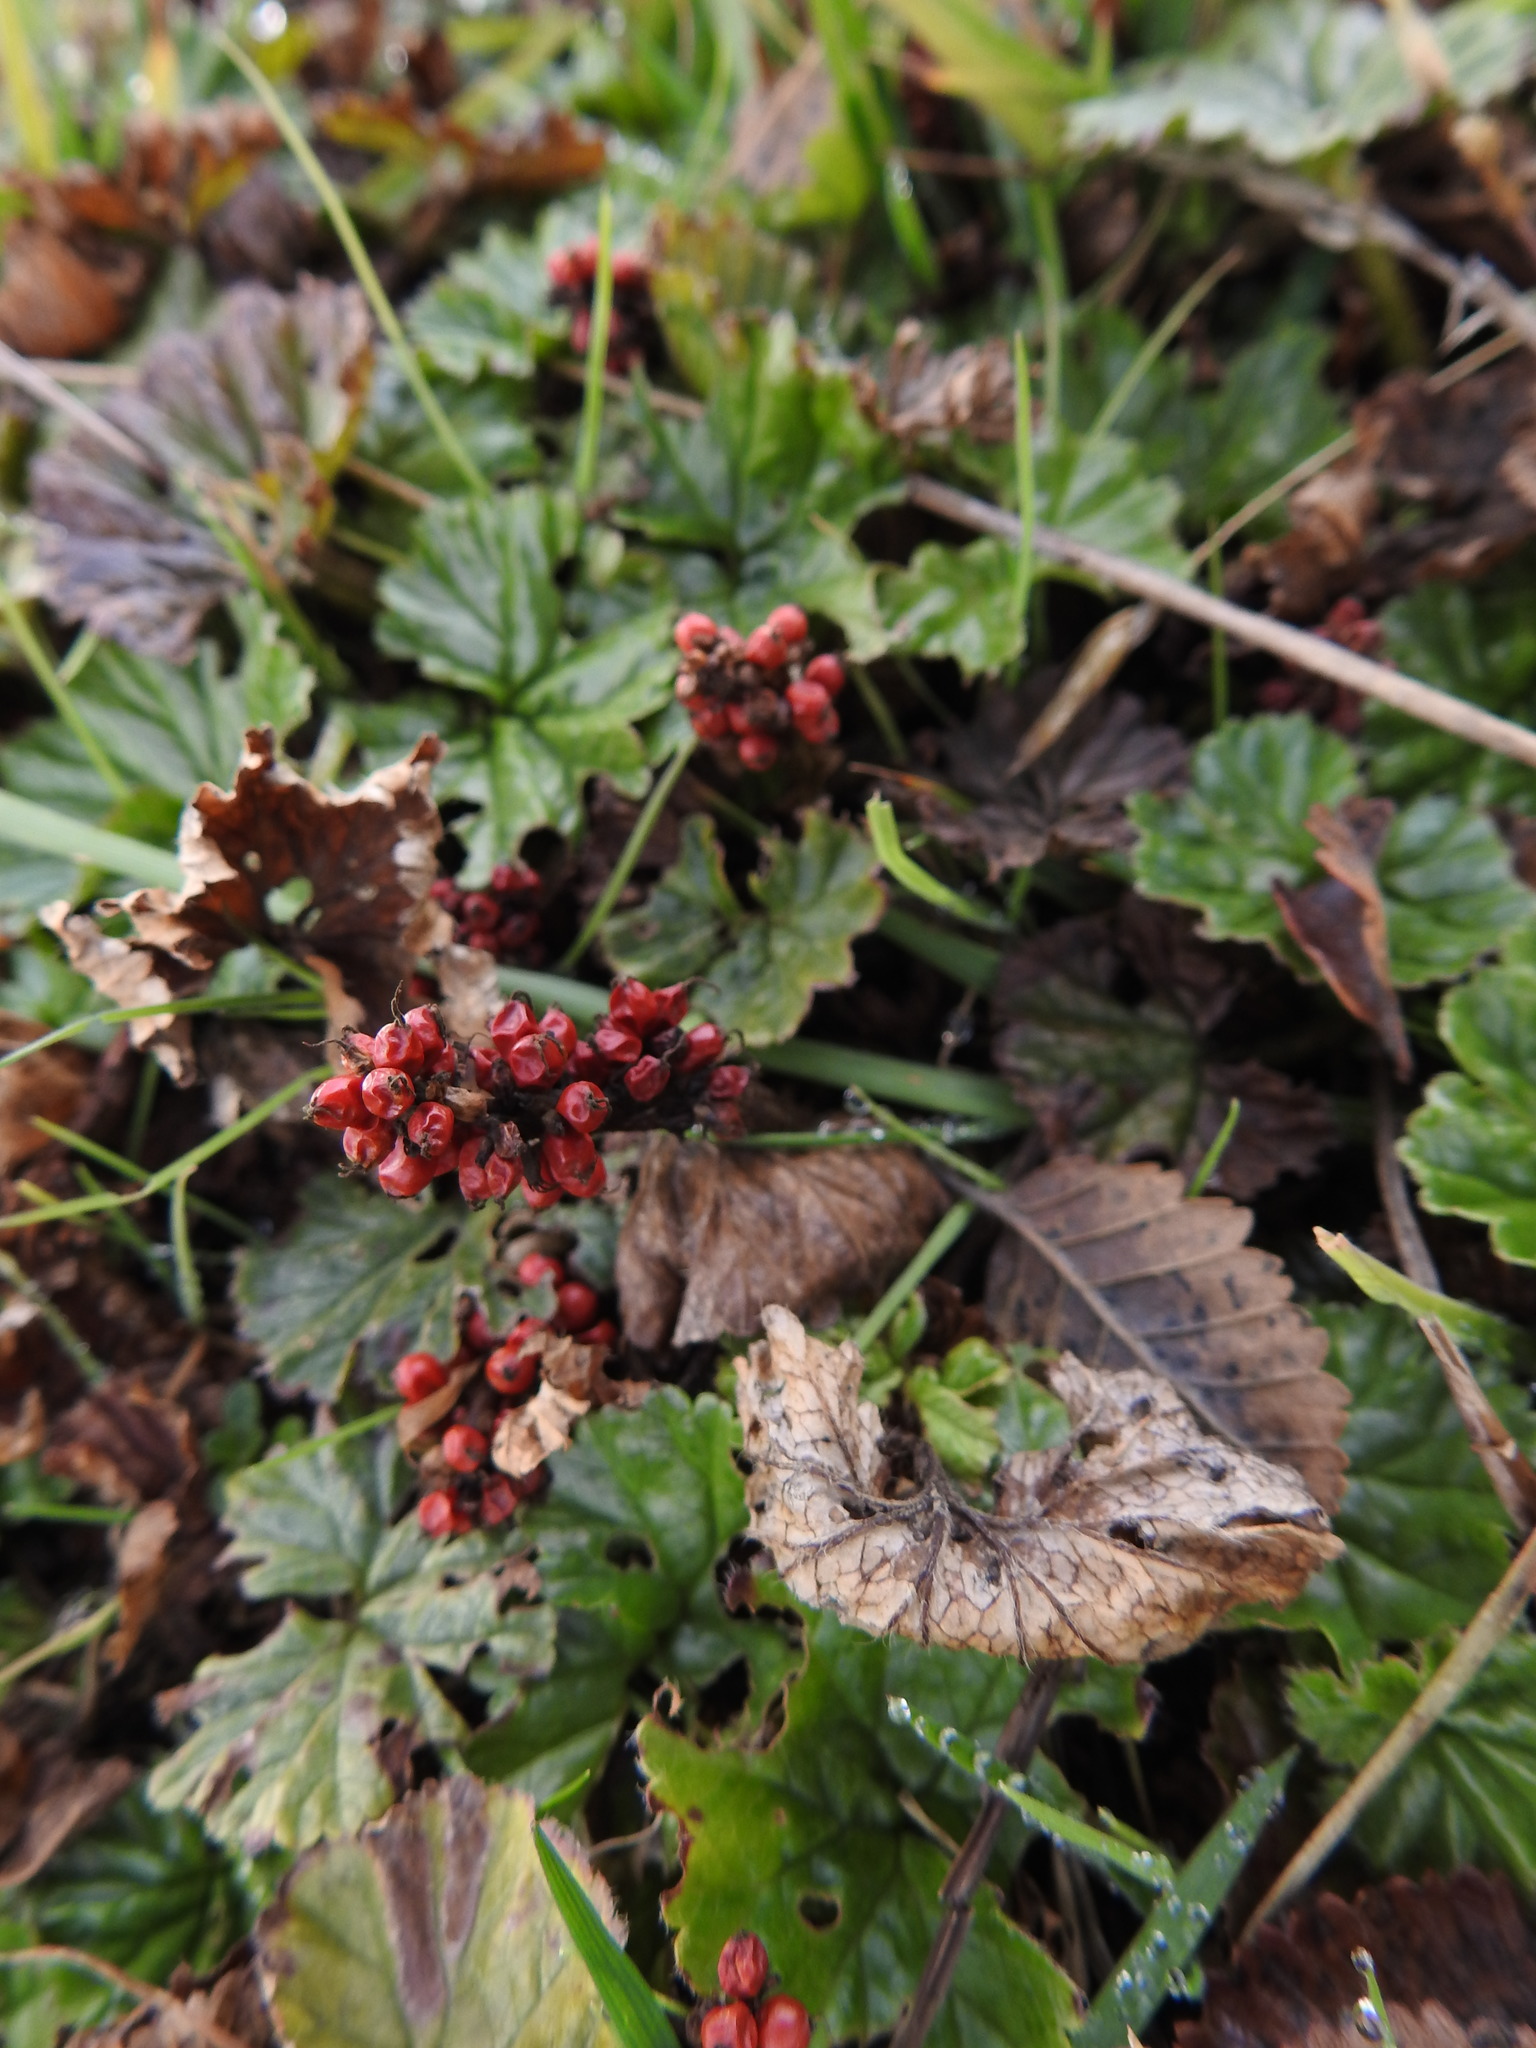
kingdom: Plantae
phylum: Tracheophyta
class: Magnoliopsida
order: Gunnerales
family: Gunneraceae
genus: Gunnera
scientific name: Gunnera magellanica
